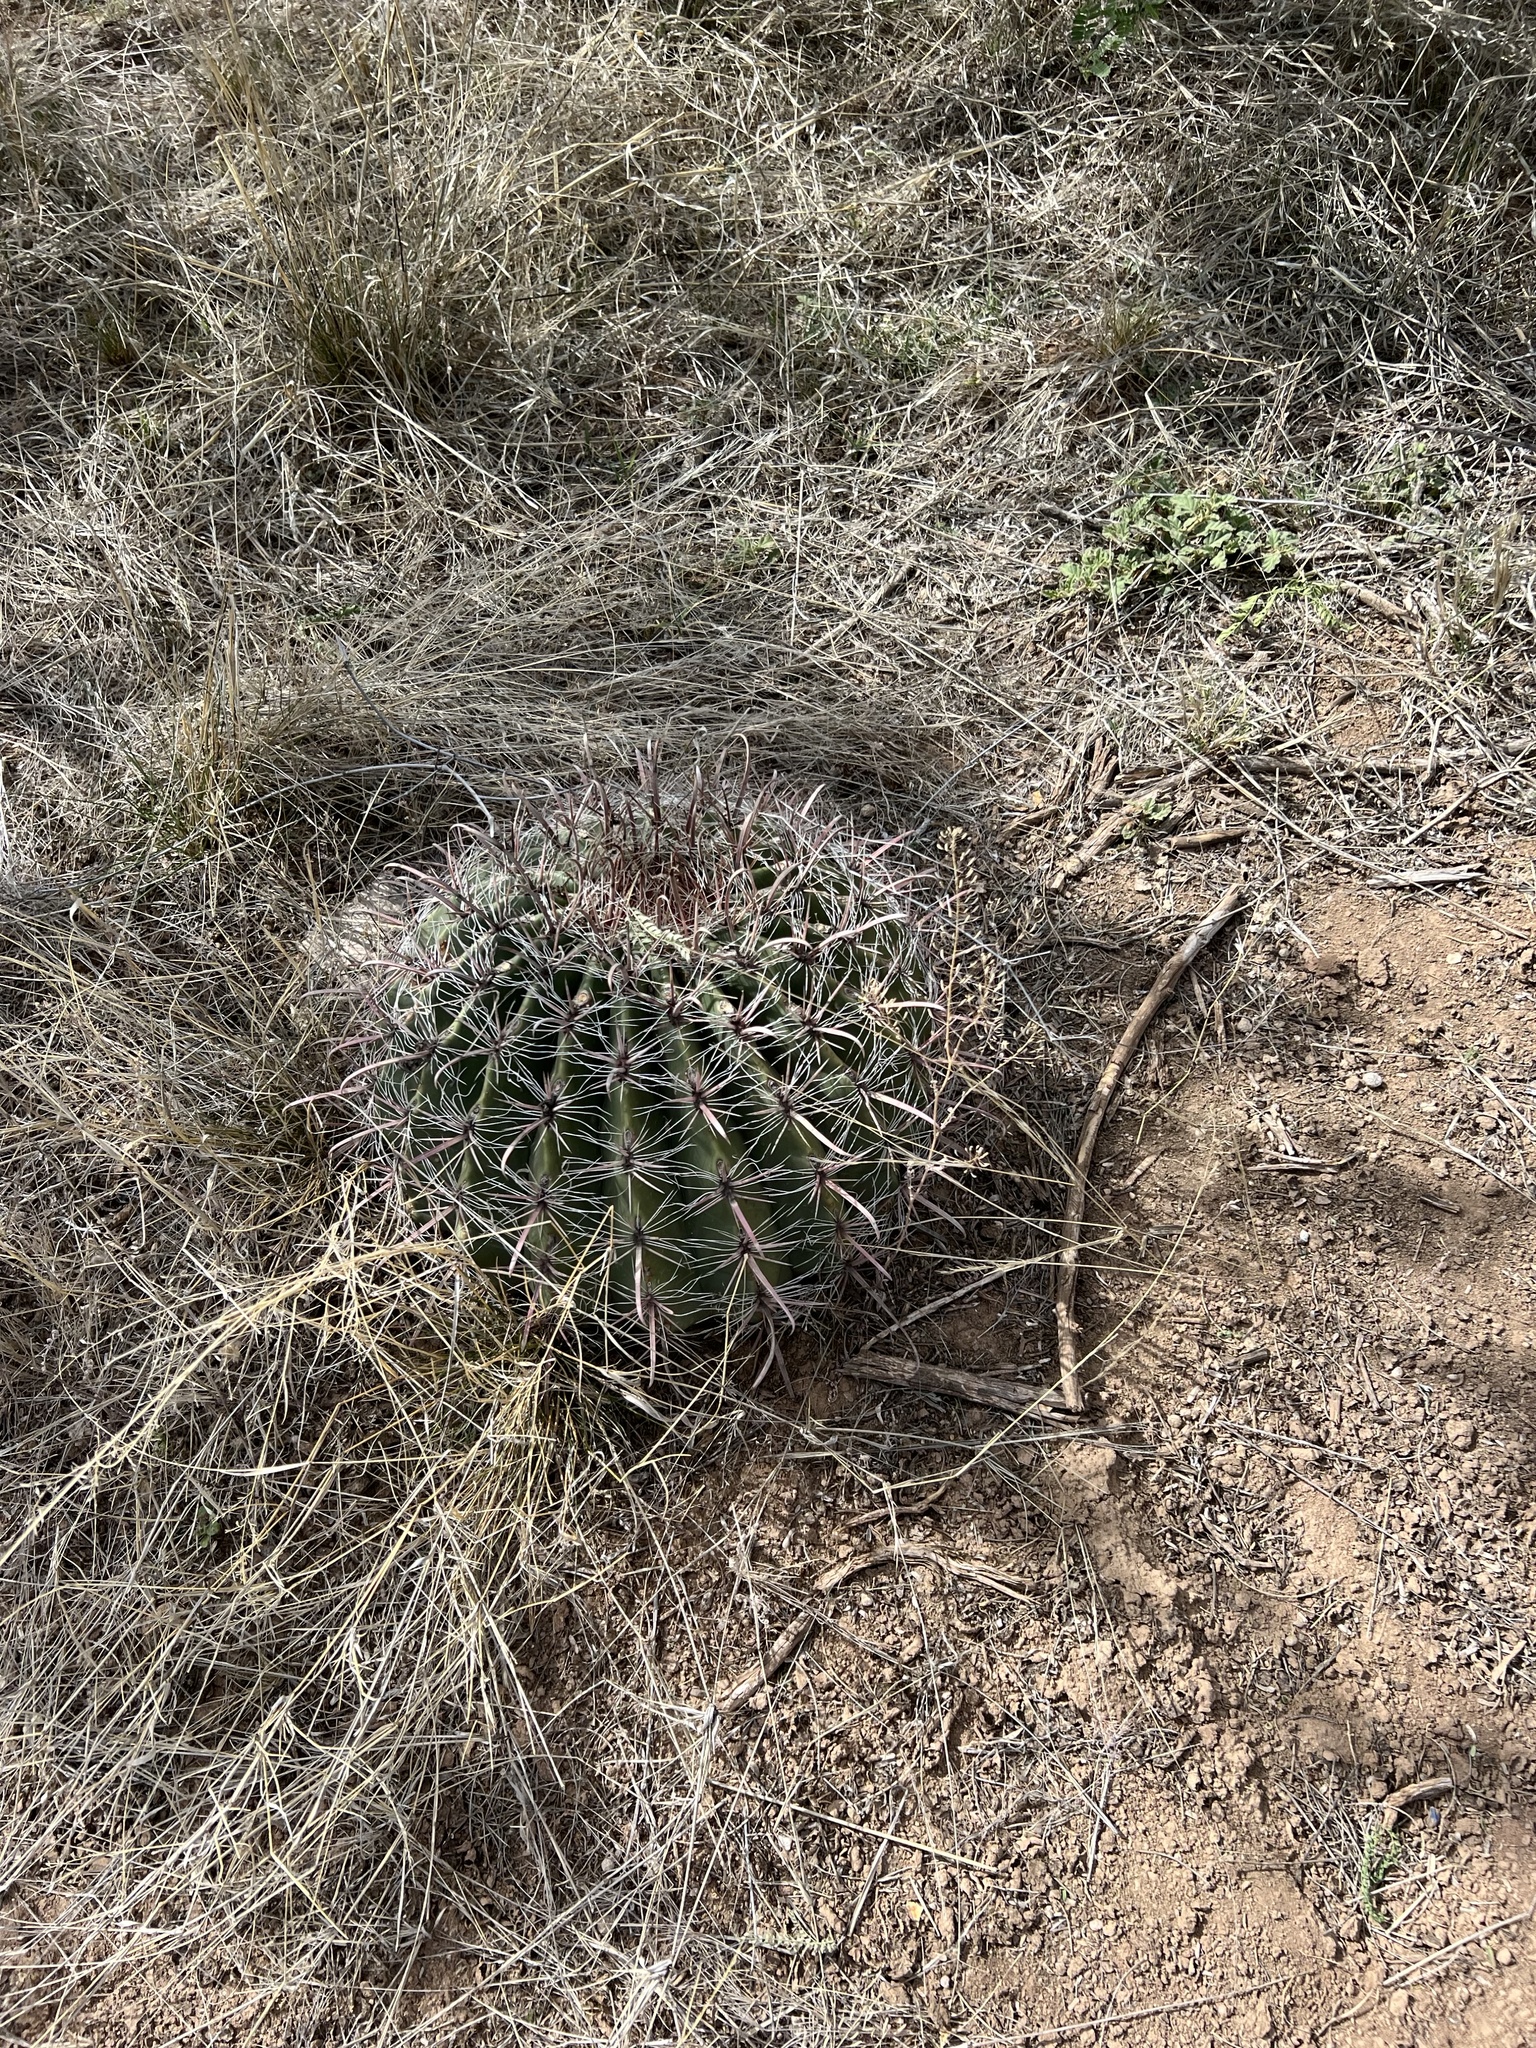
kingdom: Plantae
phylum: Tracheophyta
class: Magnoliopsida
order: Caryophyllales
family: Cactaceae
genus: Ferocactus
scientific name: Ferocactus wislizeni
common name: Candy barrel cactus
